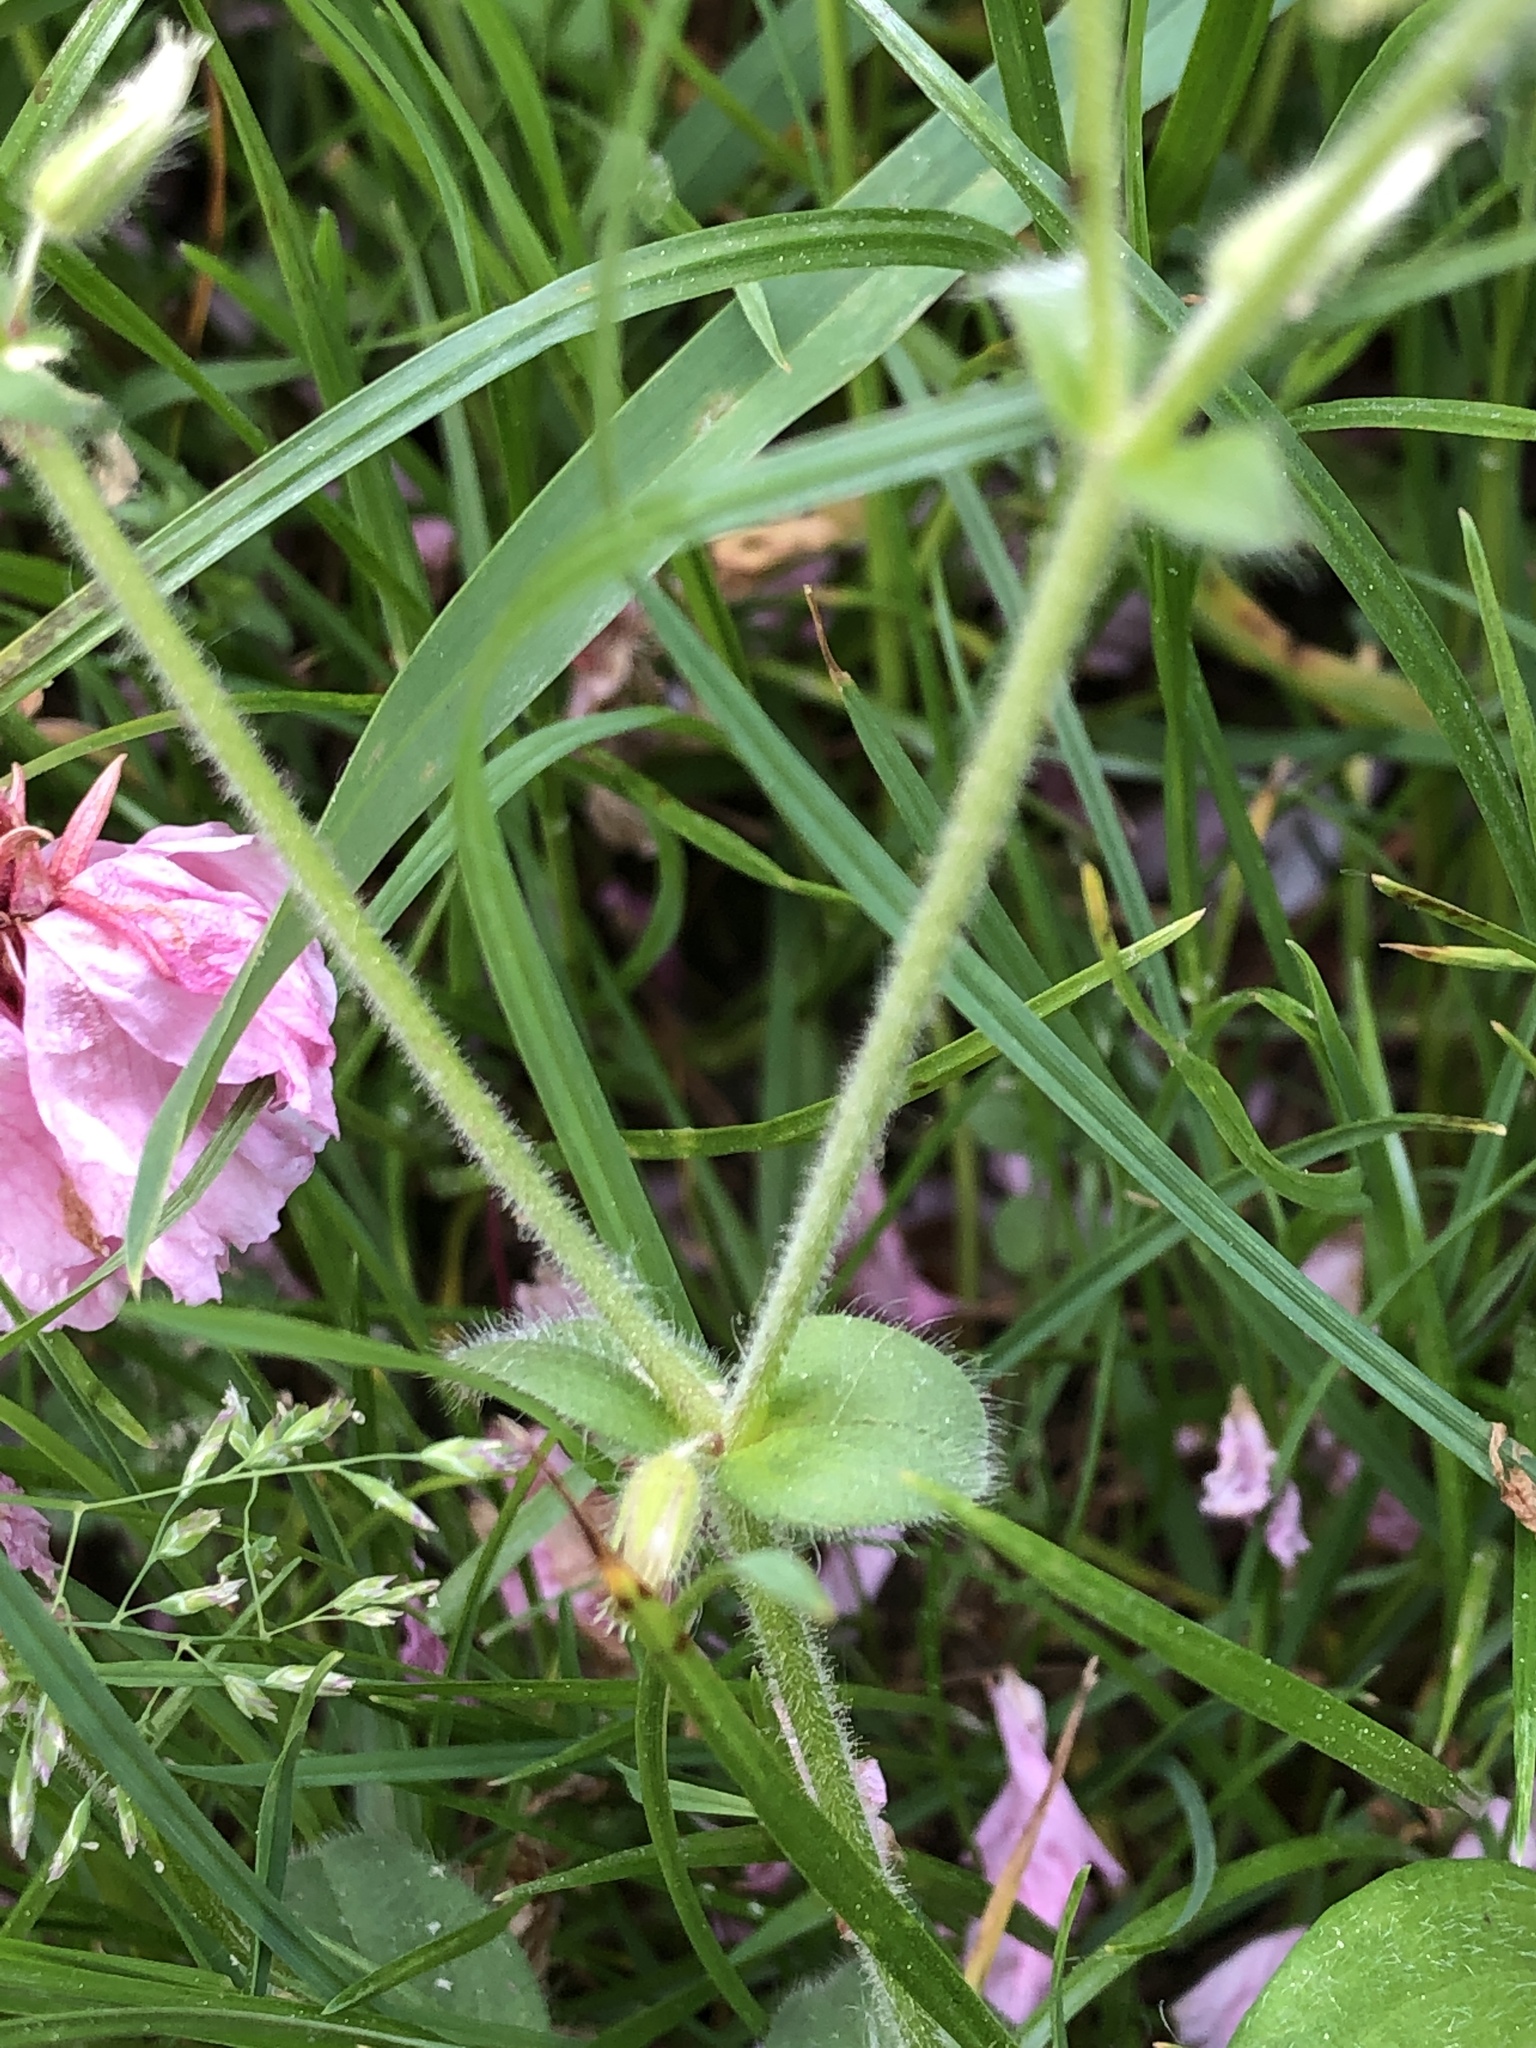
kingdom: Plantae
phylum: Tracheophyta
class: Magnoliopsida
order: Caryophyllales
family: Caryophyllaceae
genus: Cerastium
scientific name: Cerastium glomeratum
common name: Sticky chickweed
